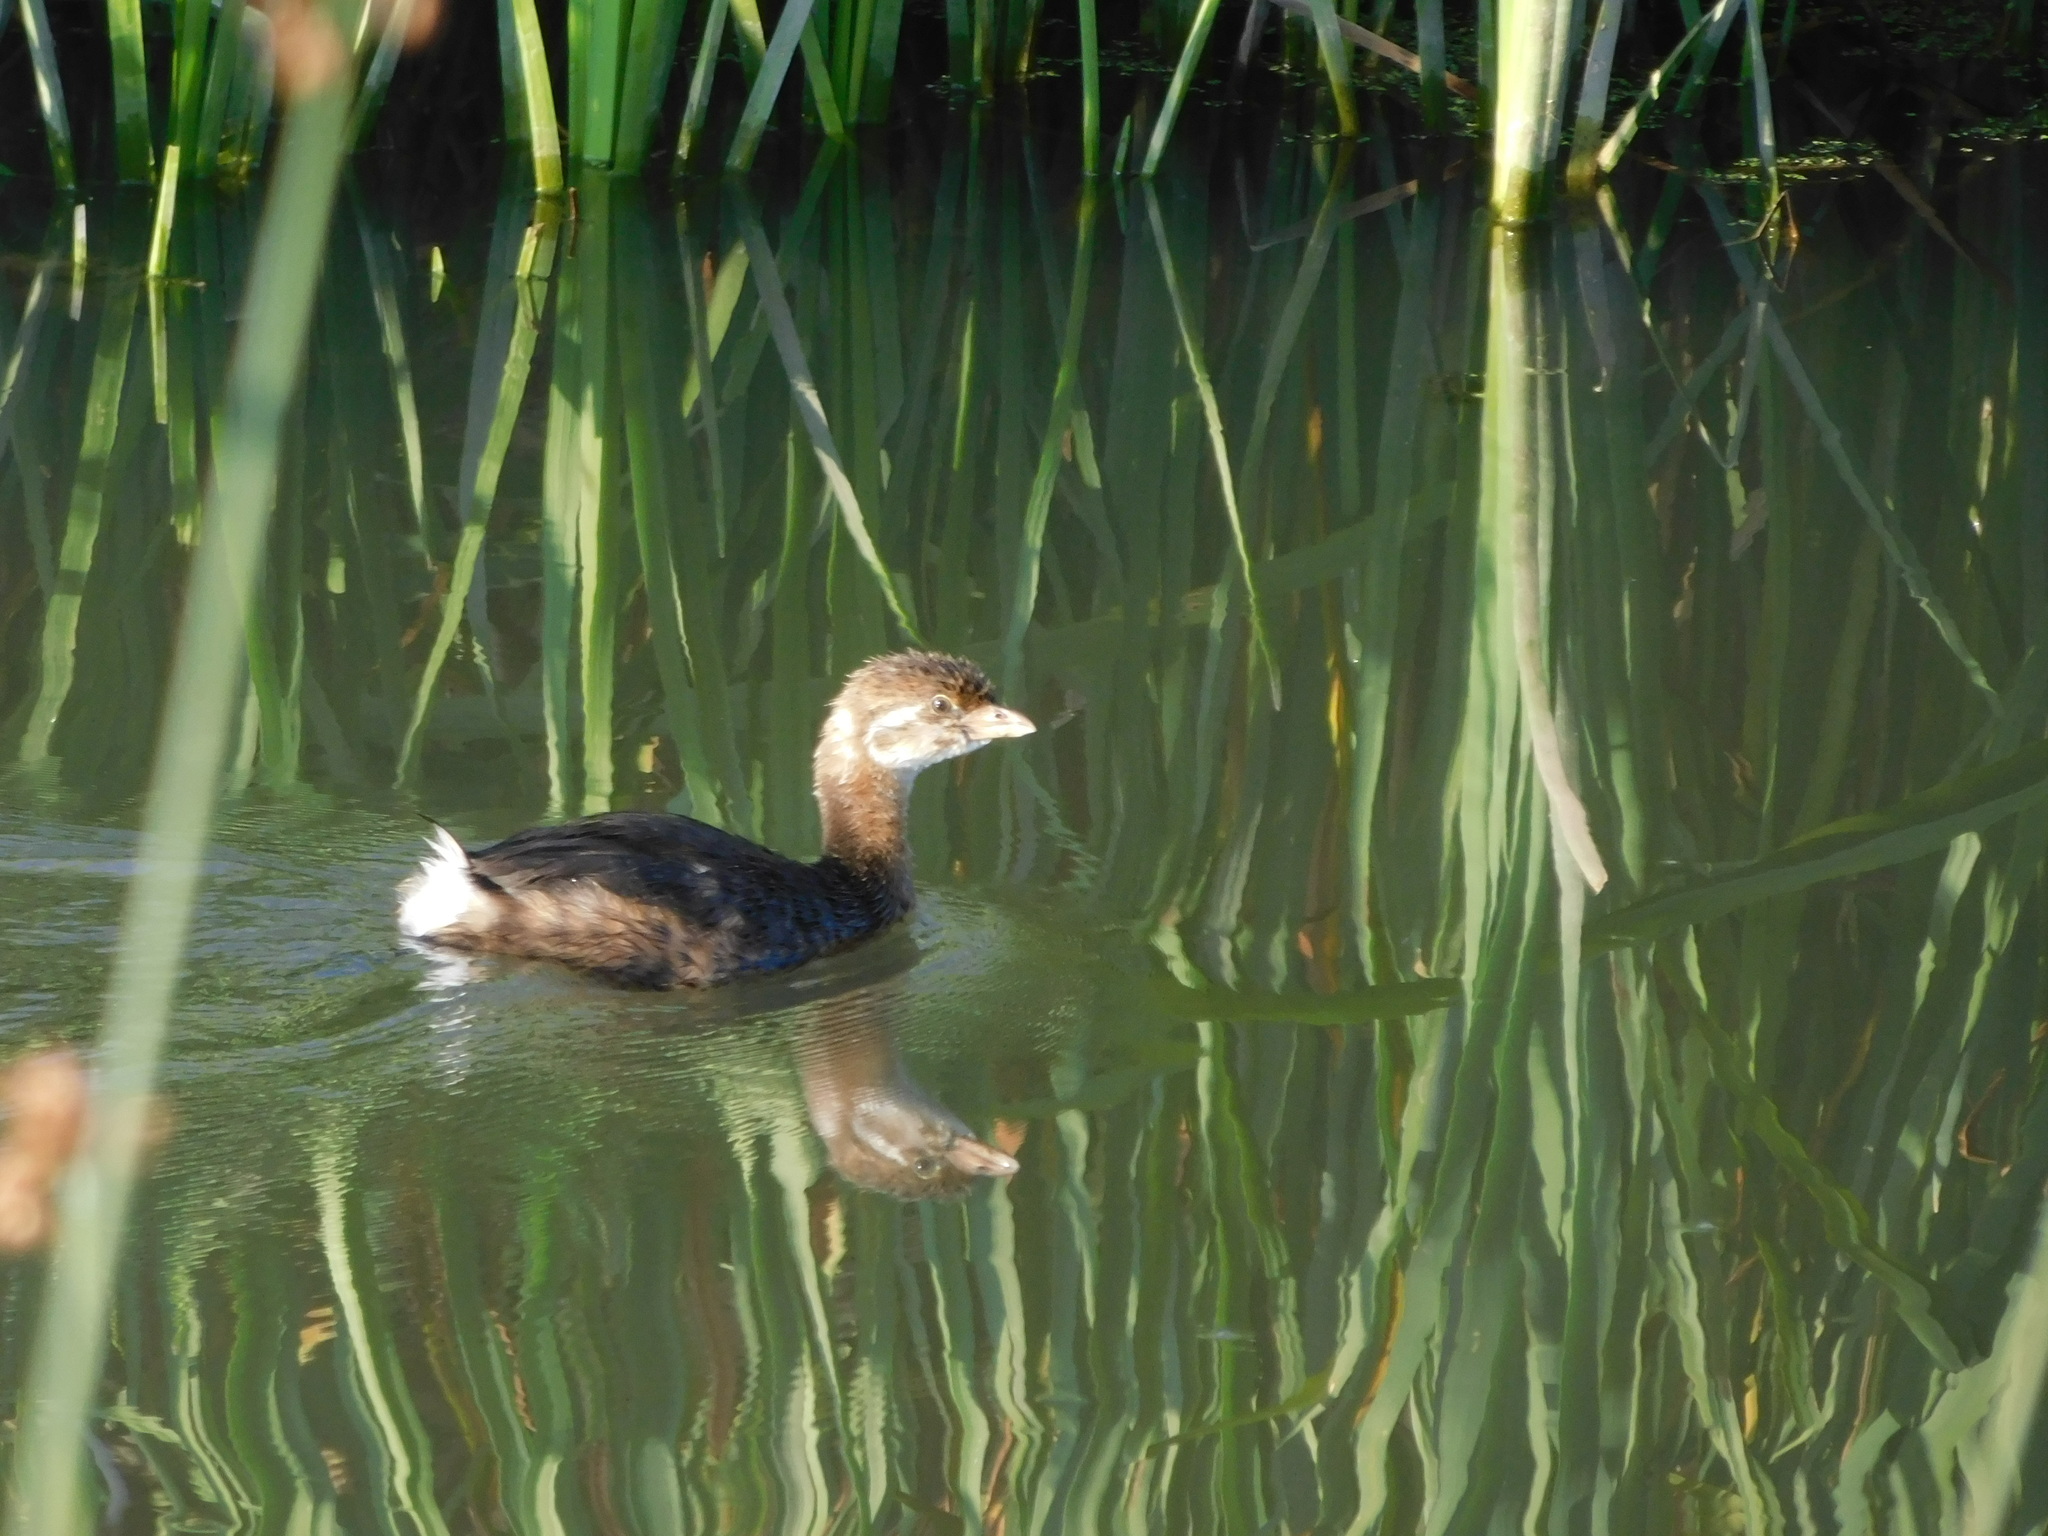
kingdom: Animalia
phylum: Chordata
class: Aves
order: Podicipediformes
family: Podicipedidae
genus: Podilymbus
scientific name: Podilymbus podiceps
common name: Pied-billed grebe
